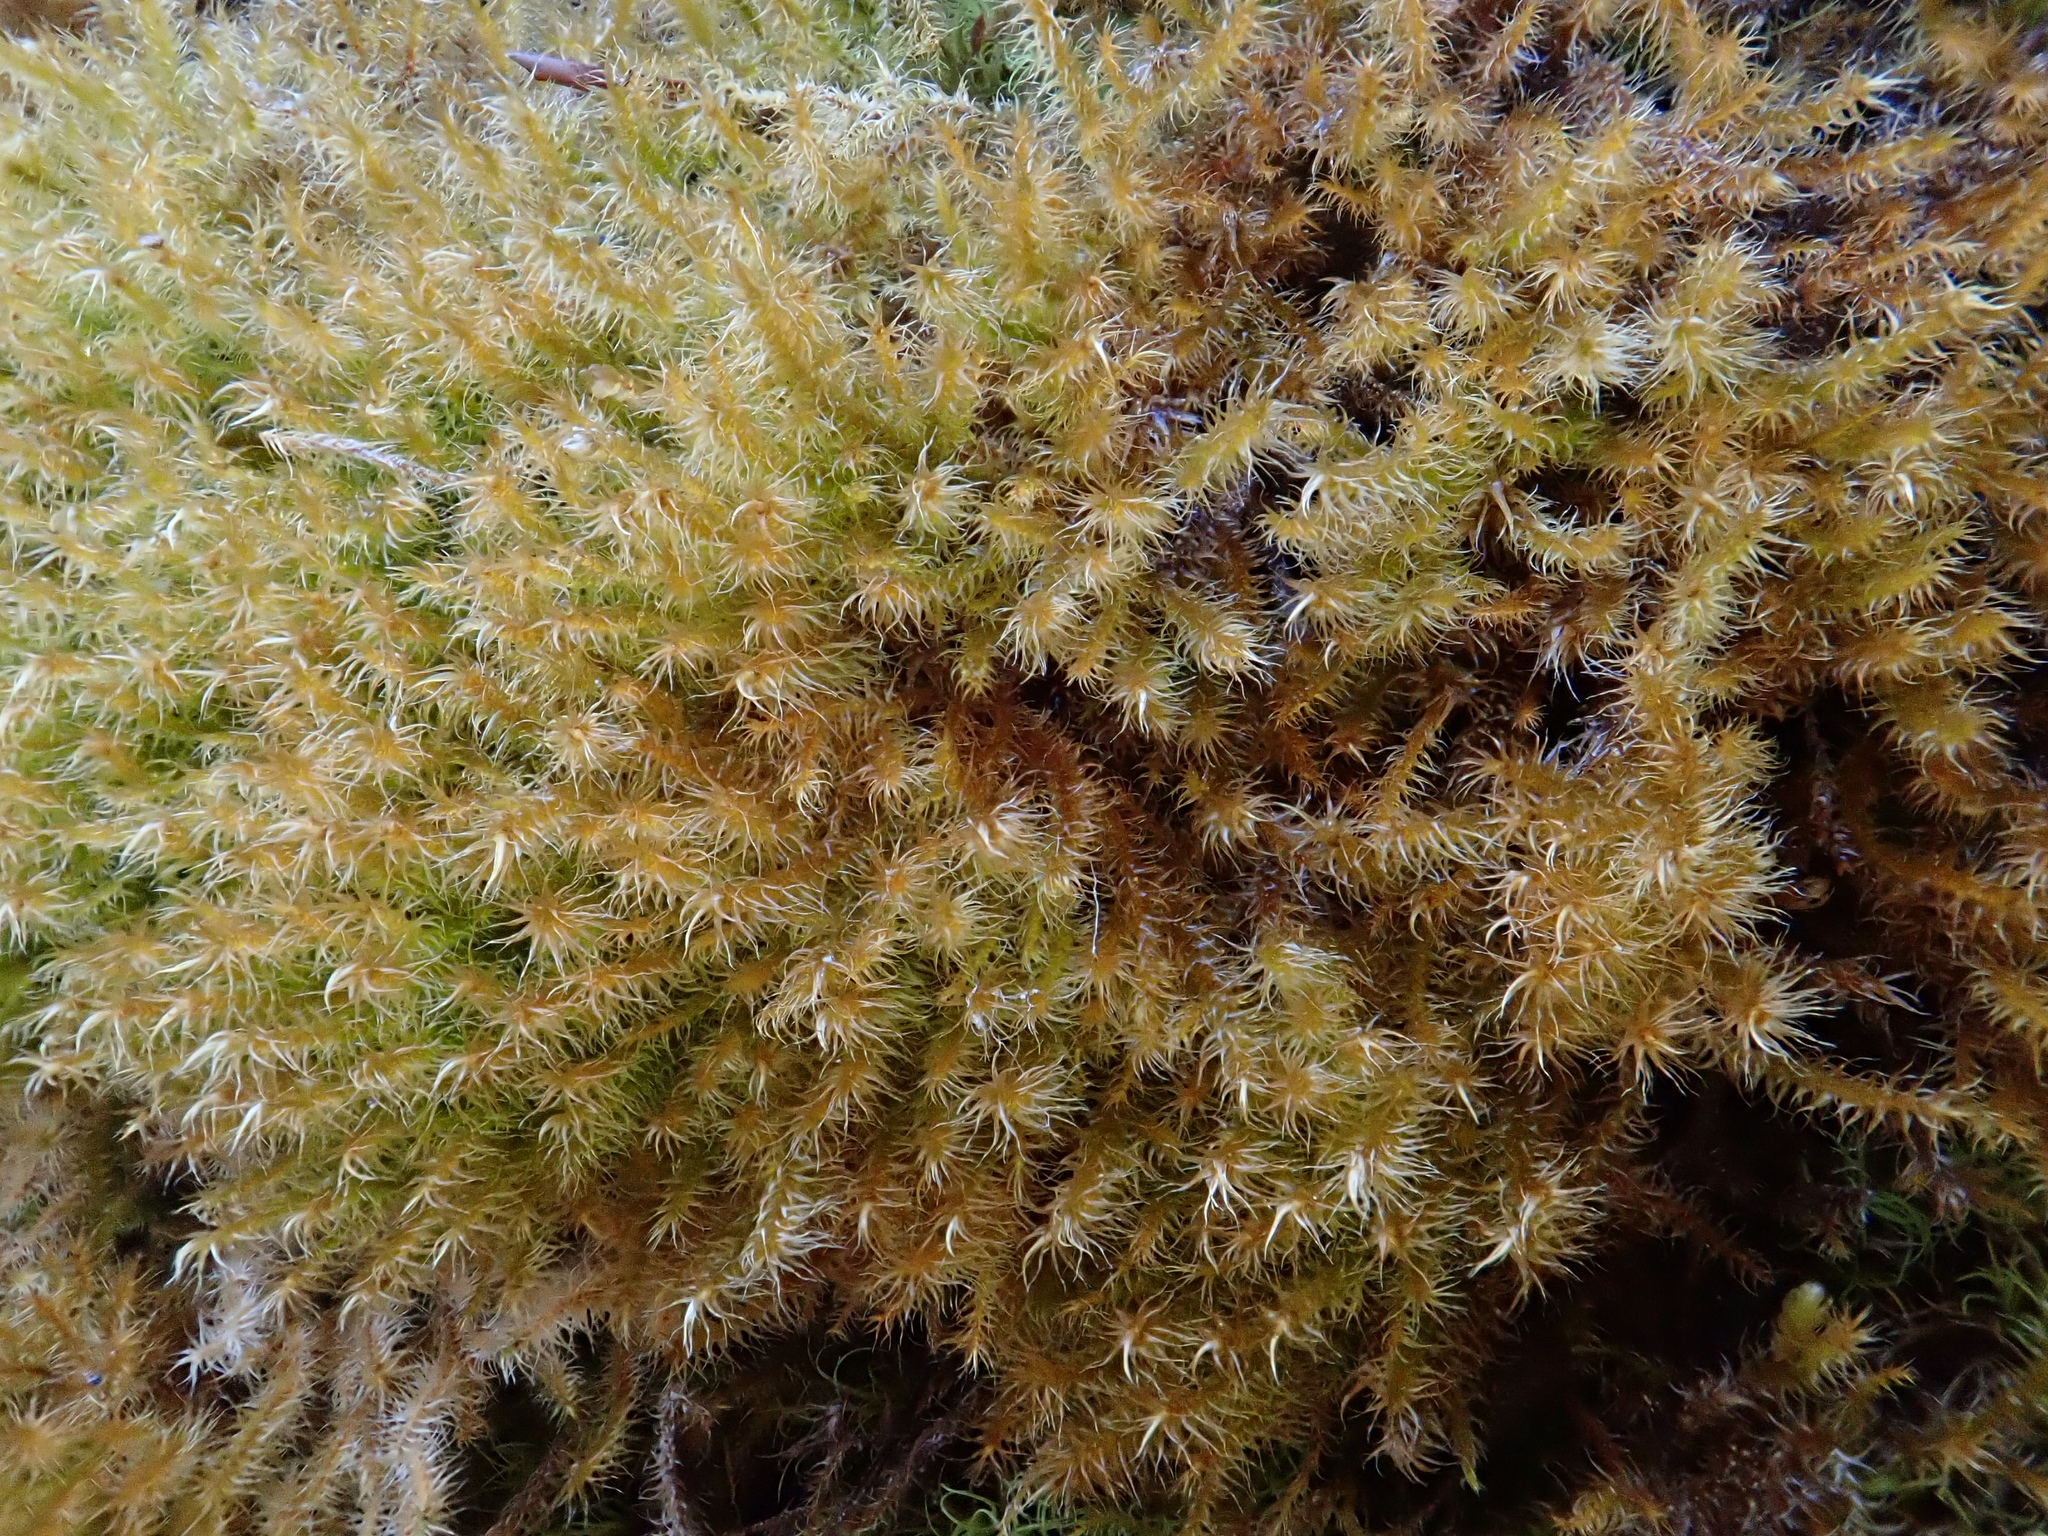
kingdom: Plantae
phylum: Bryophyta
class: Bryopsida
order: Hypnales
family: Amblystegiaceae
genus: Campylium
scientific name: Campylium chrysophyllum
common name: Goldenleaf campylium moss
